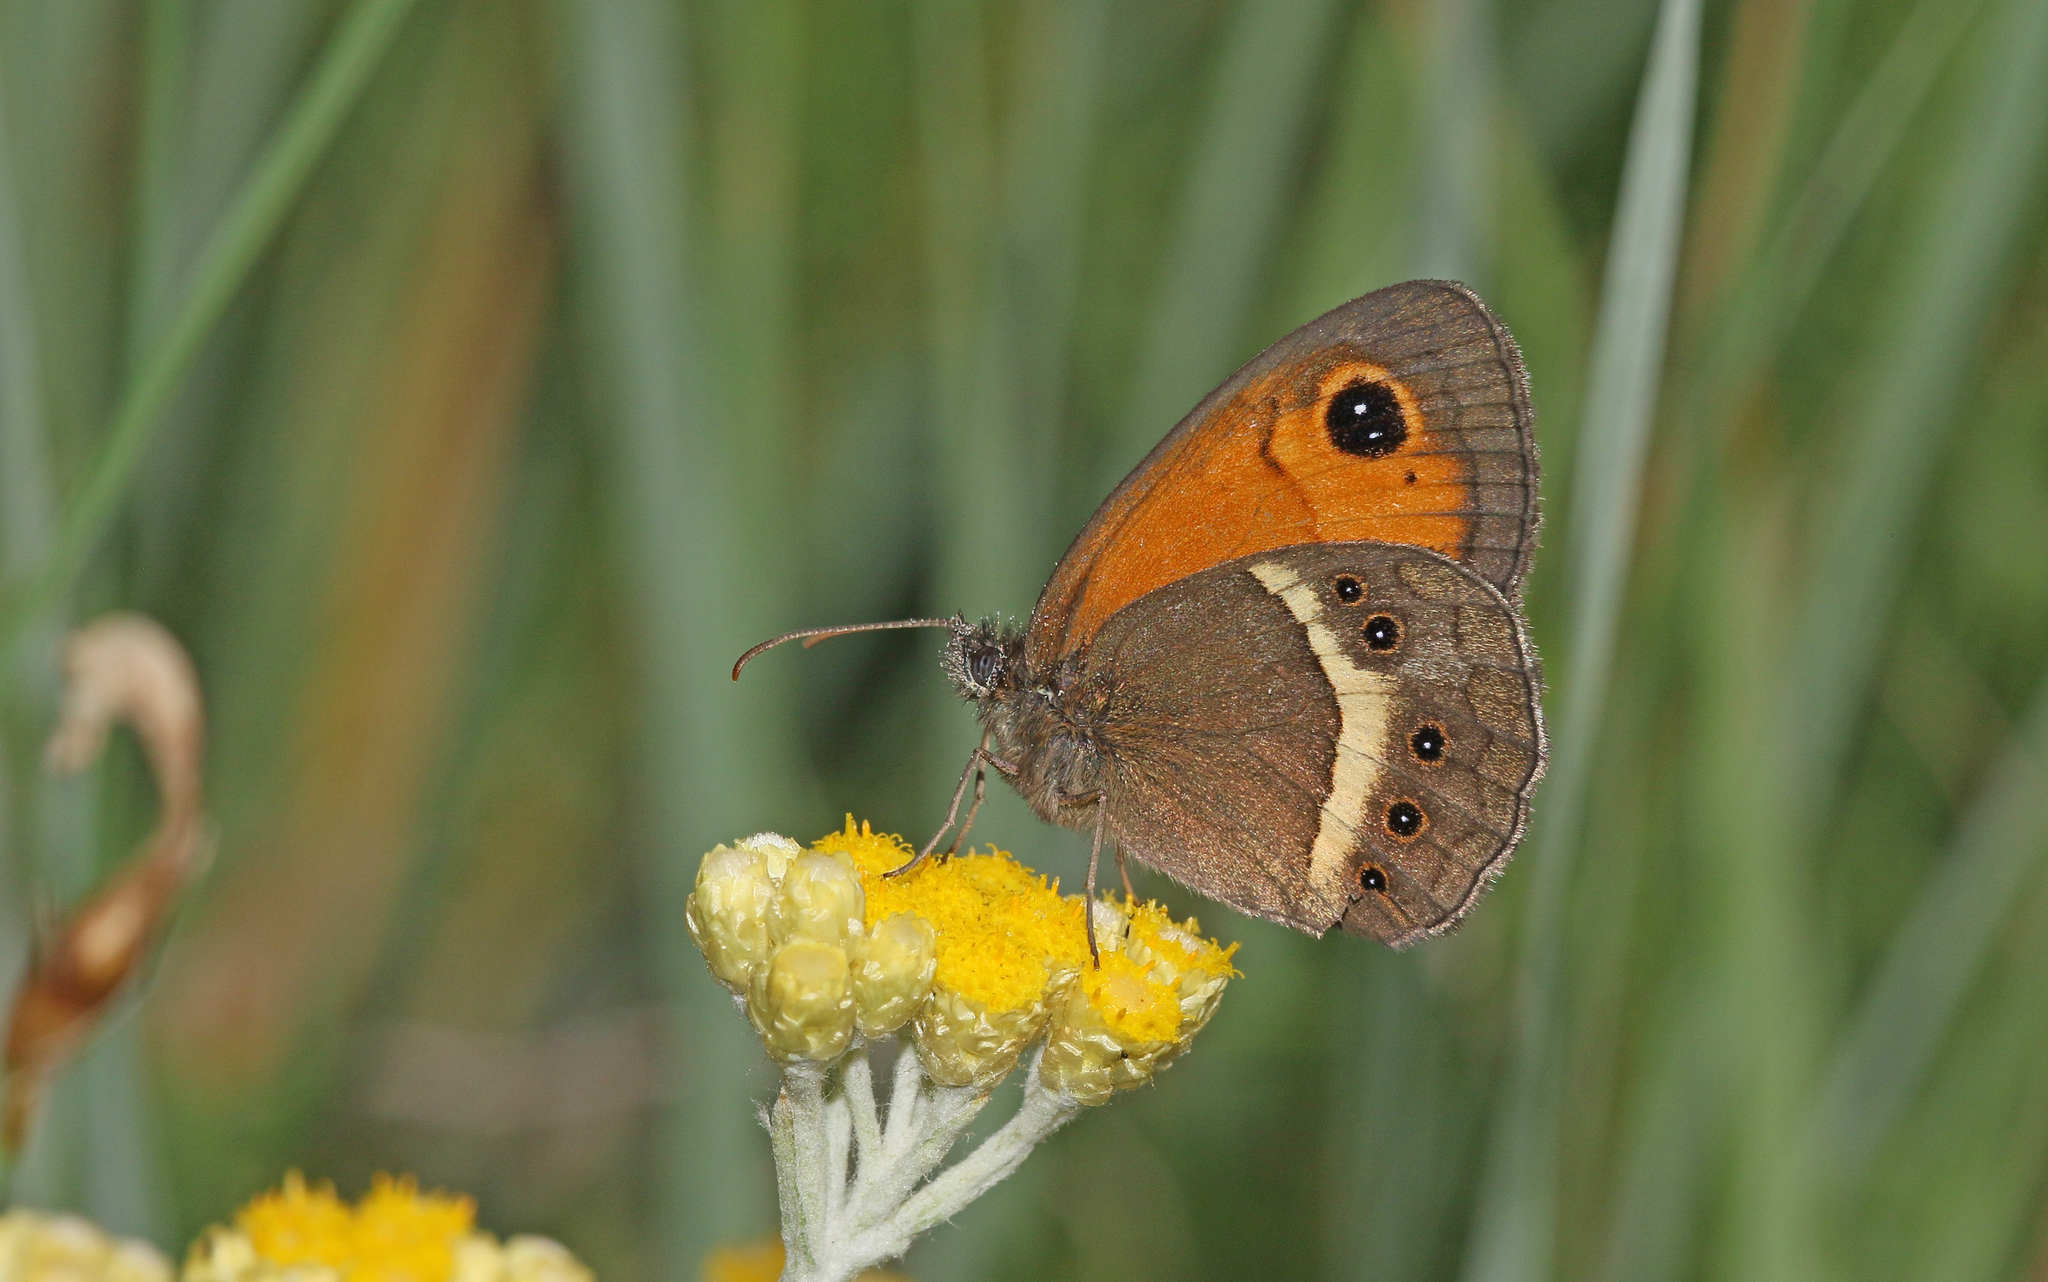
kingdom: Animalia
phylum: Arthropoda
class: Insecta
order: Lepidoptera
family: Nymphalidae
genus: Pyronia
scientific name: Pyronia bathseba
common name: Spanish gatekeeper
